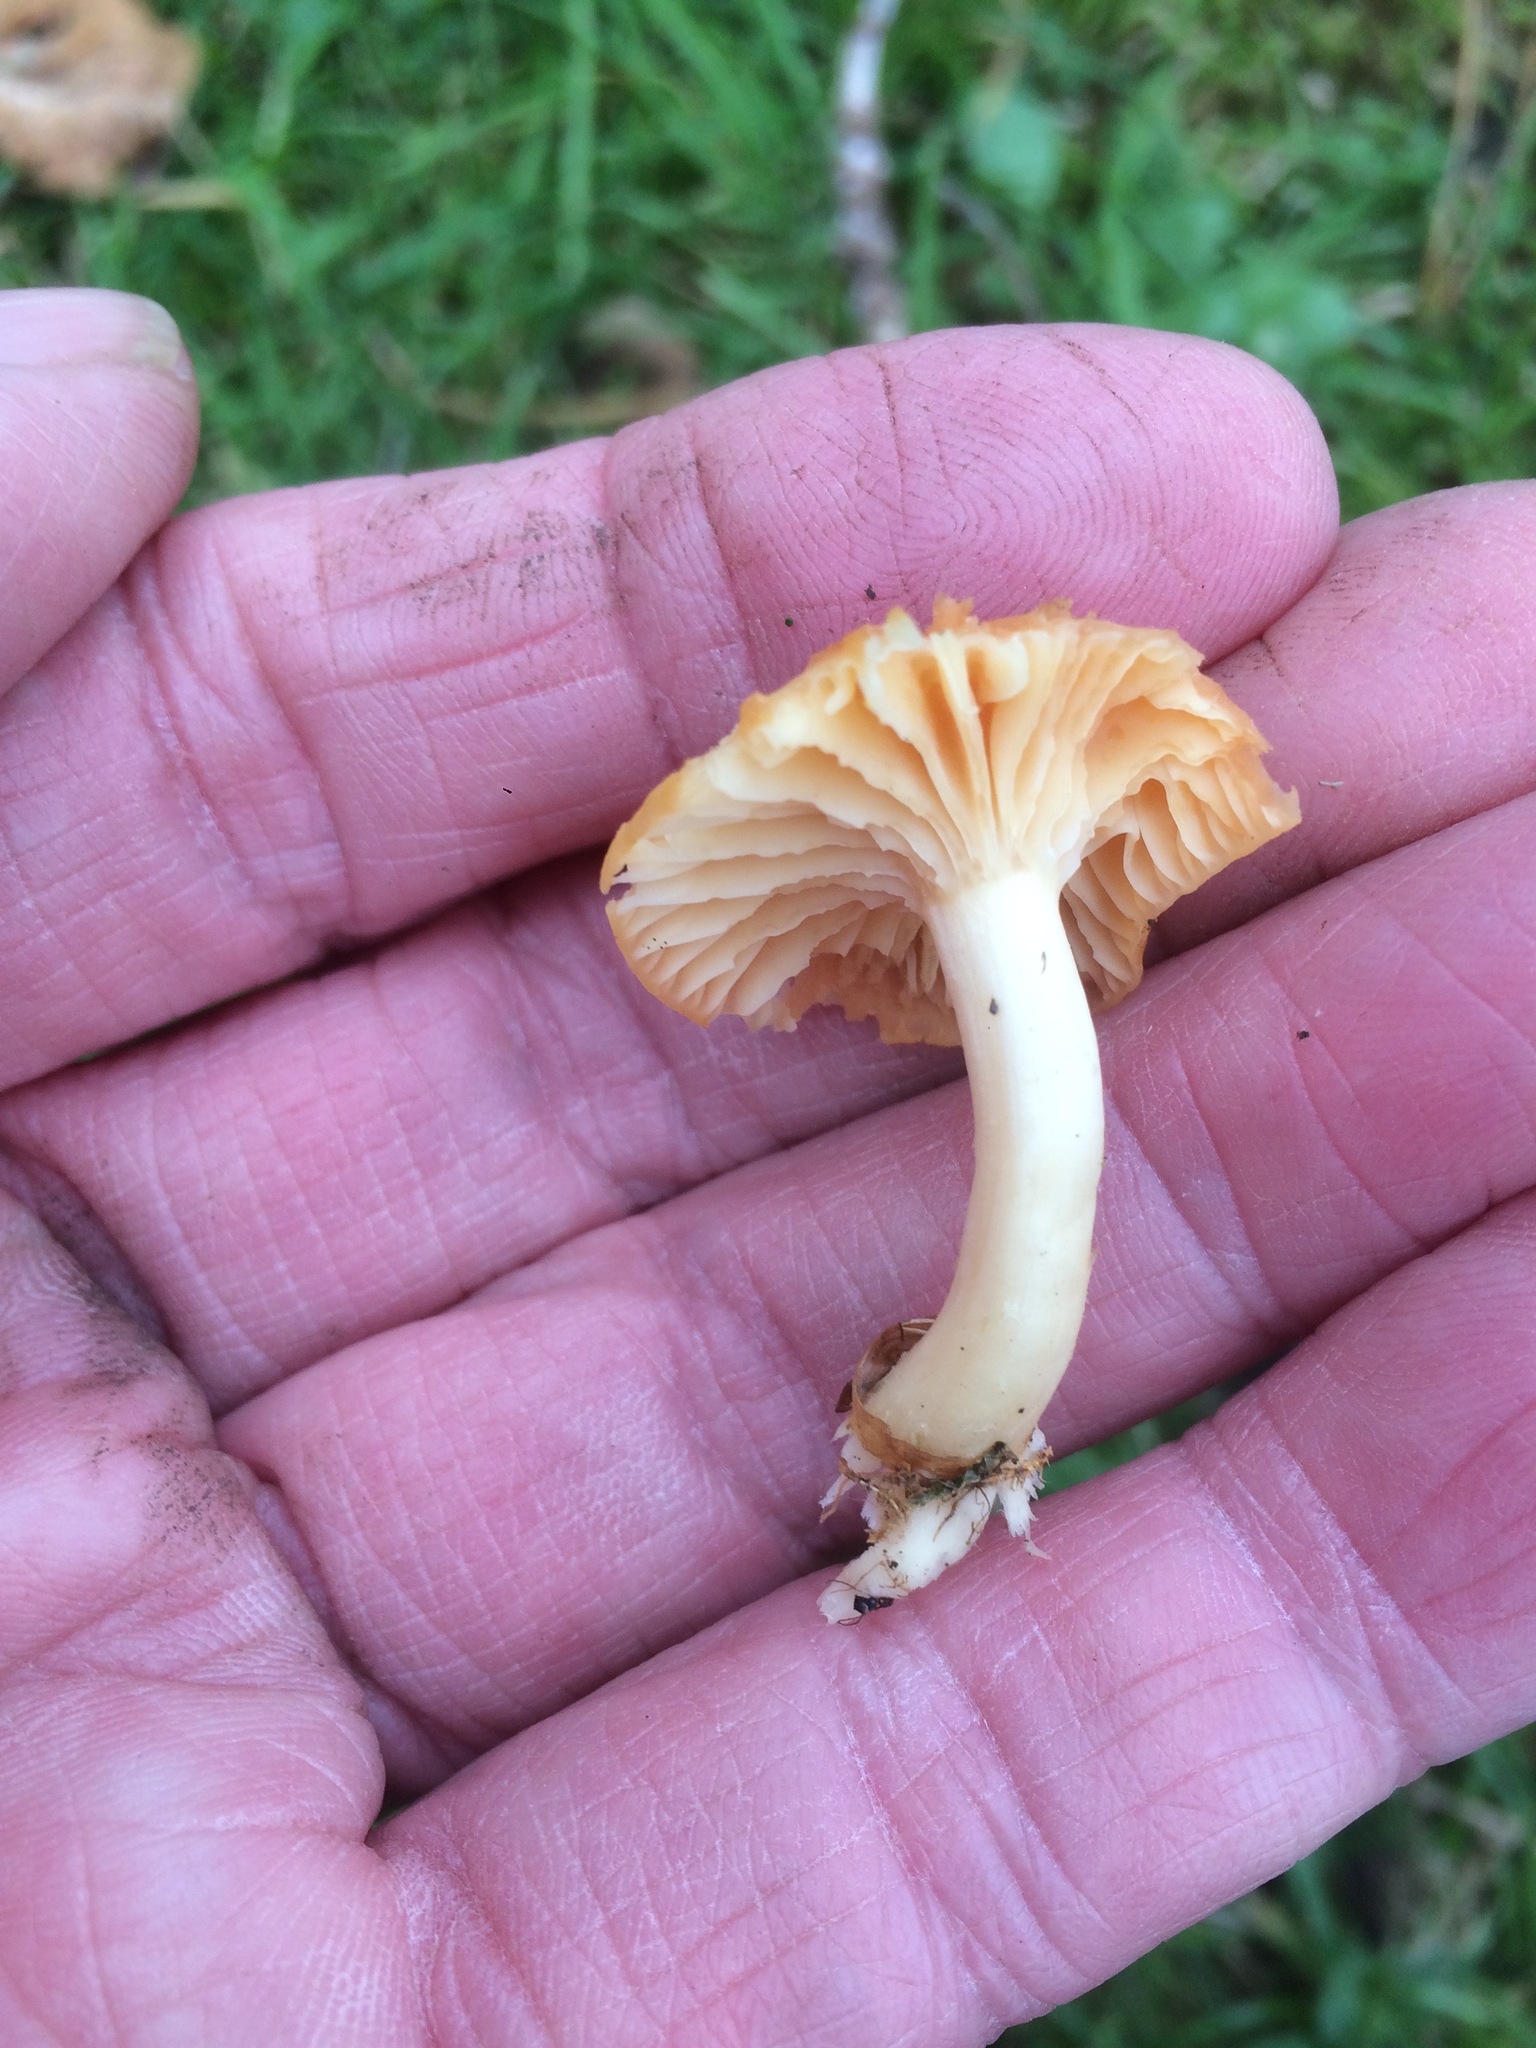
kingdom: Fungi
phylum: Basidiomycota
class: Agaricomycetes
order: Agaricales
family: Hygrophoraceae
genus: Cuphophyllus
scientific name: Cuphophyllus pratensis
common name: Meadow waxcap
